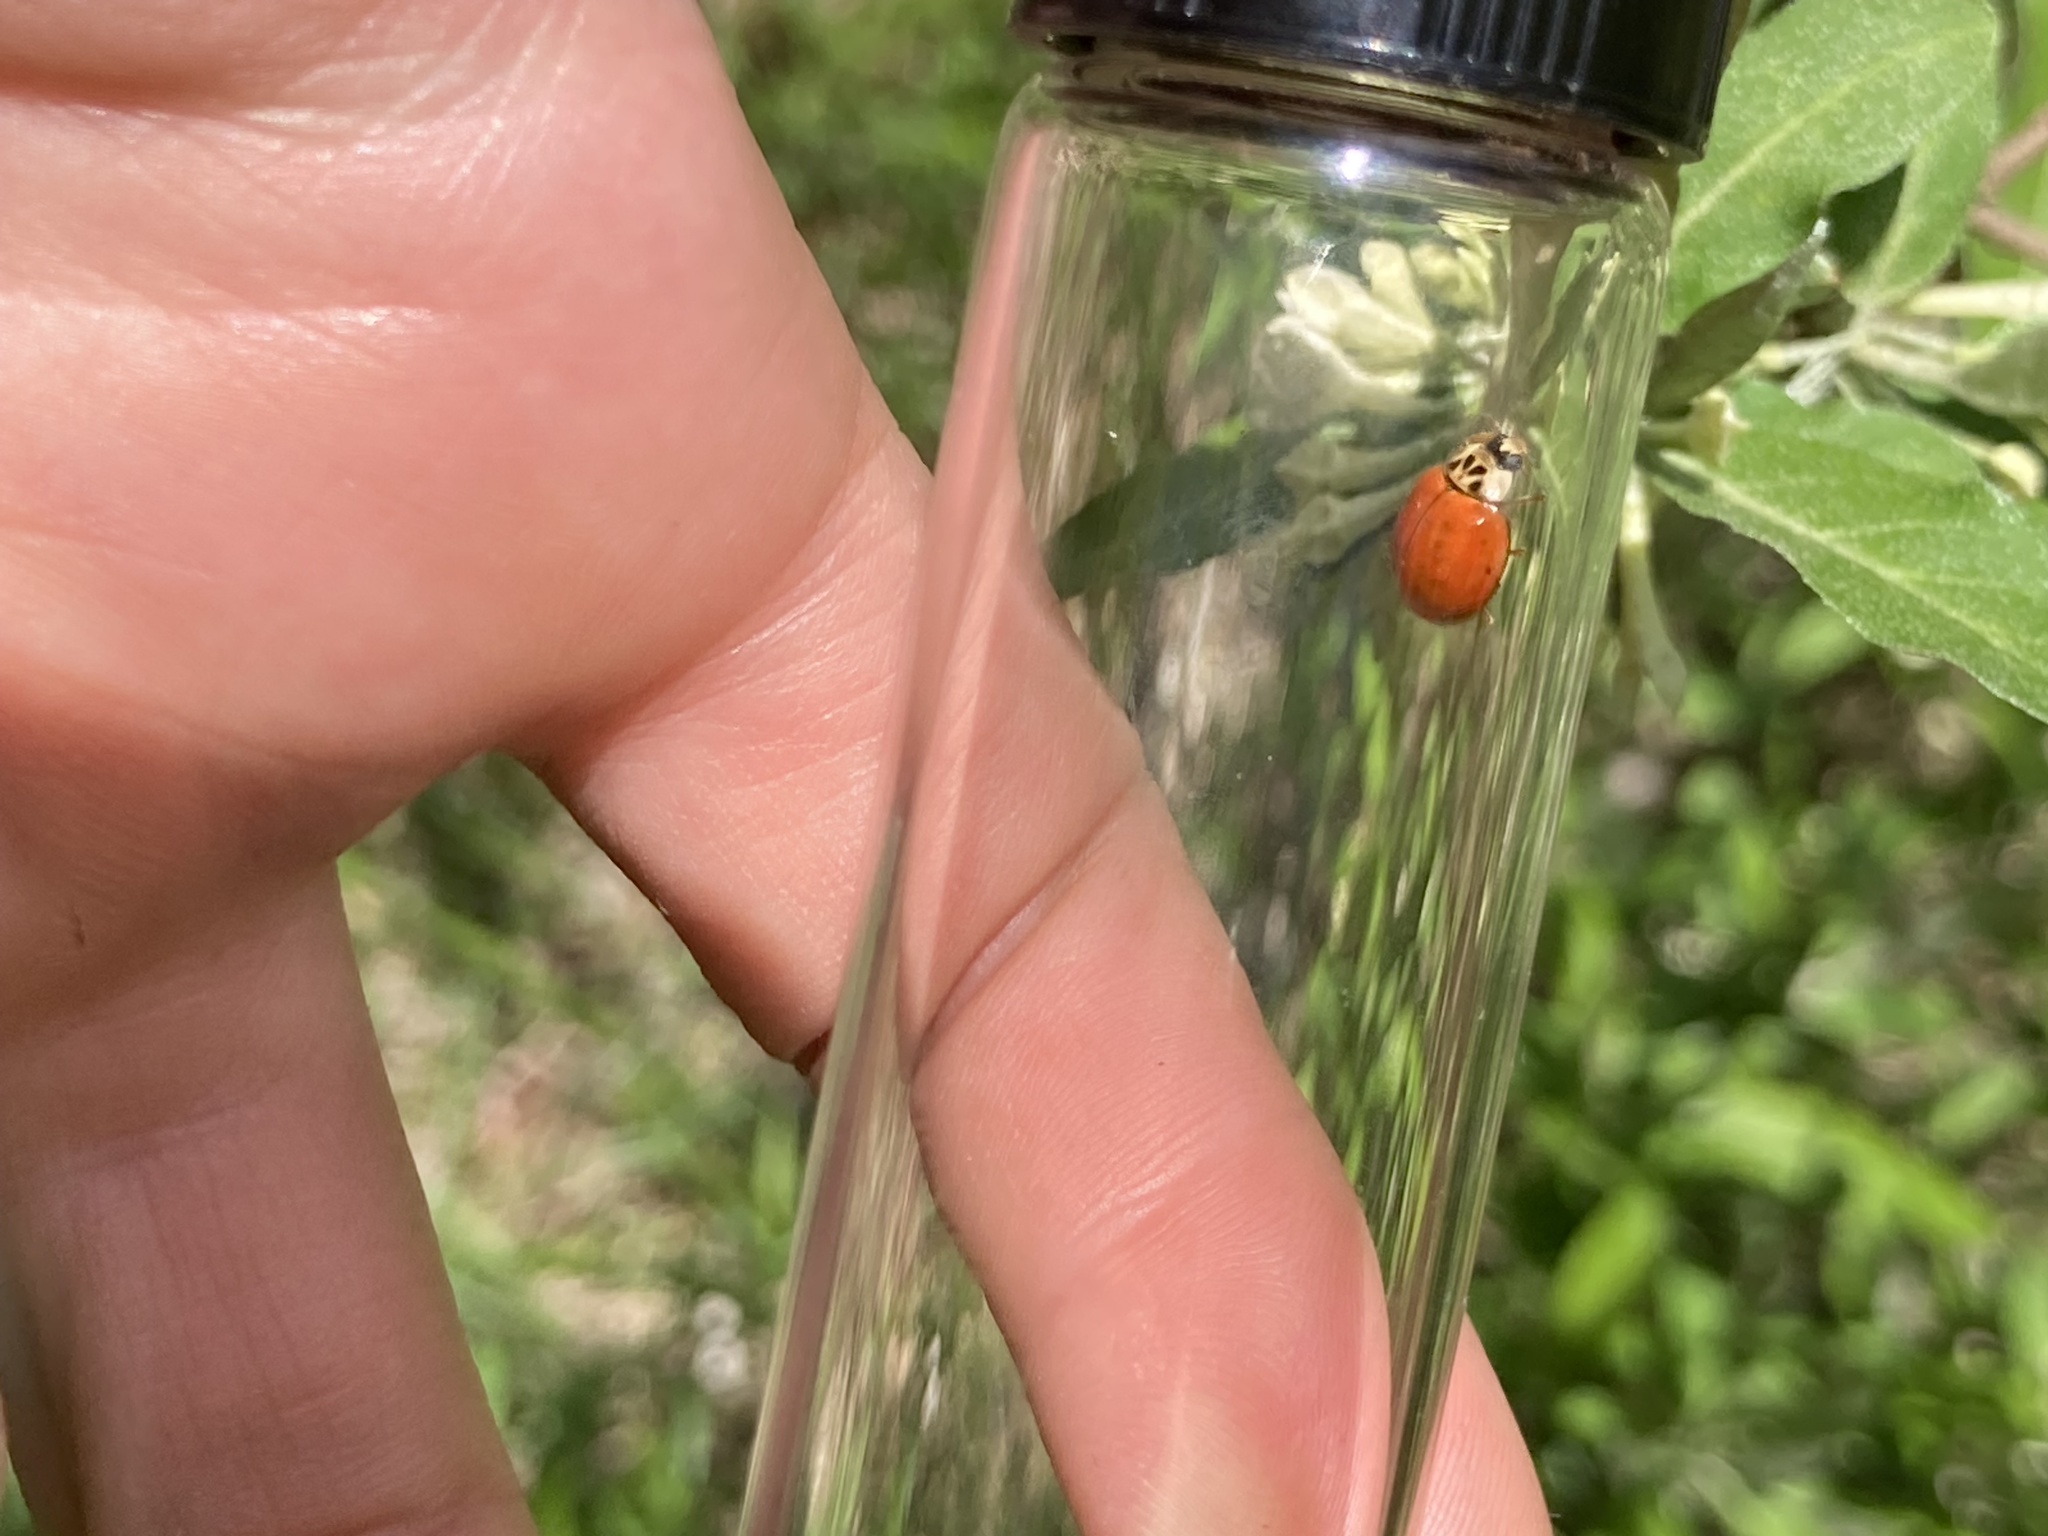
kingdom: Animalia
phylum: Arthropoda
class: Insecta
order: Coleoptera
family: Coccinellidae
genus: Harmonia
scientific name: Harmonia axyridis
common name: Harlequin ladybird
